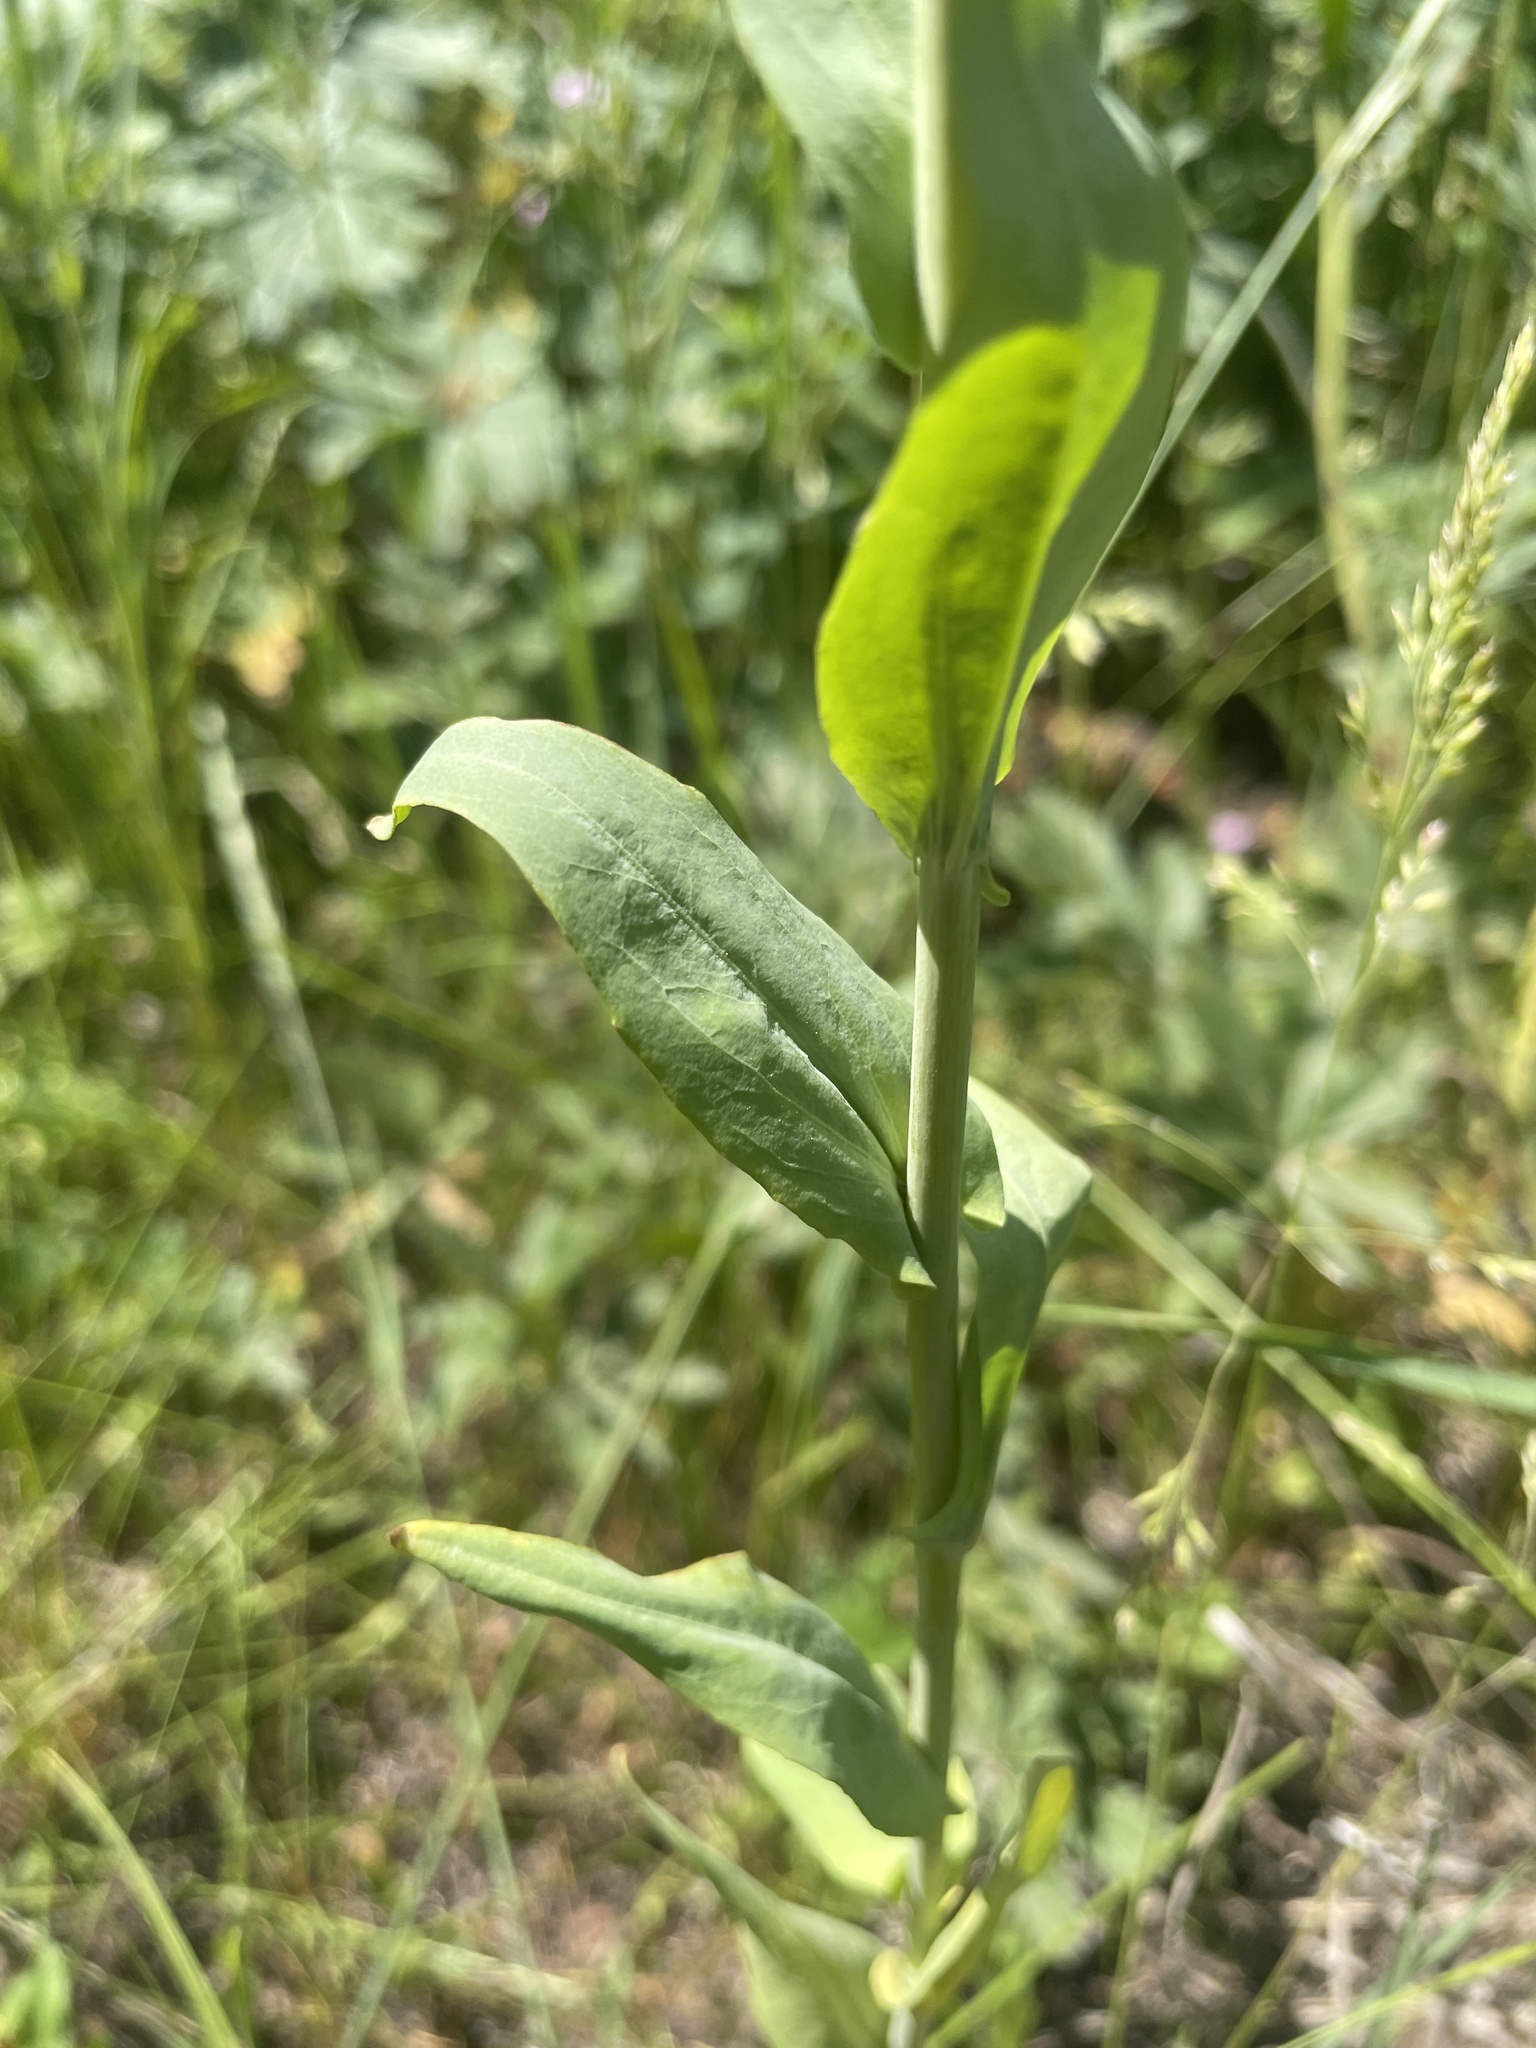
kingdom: Plantae
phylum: Tracheophyta
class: Magnoliopsida
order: Brassicales
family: Brassicaceae
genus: Turritis
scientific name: Turritis glabra
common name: Tower rockcress
